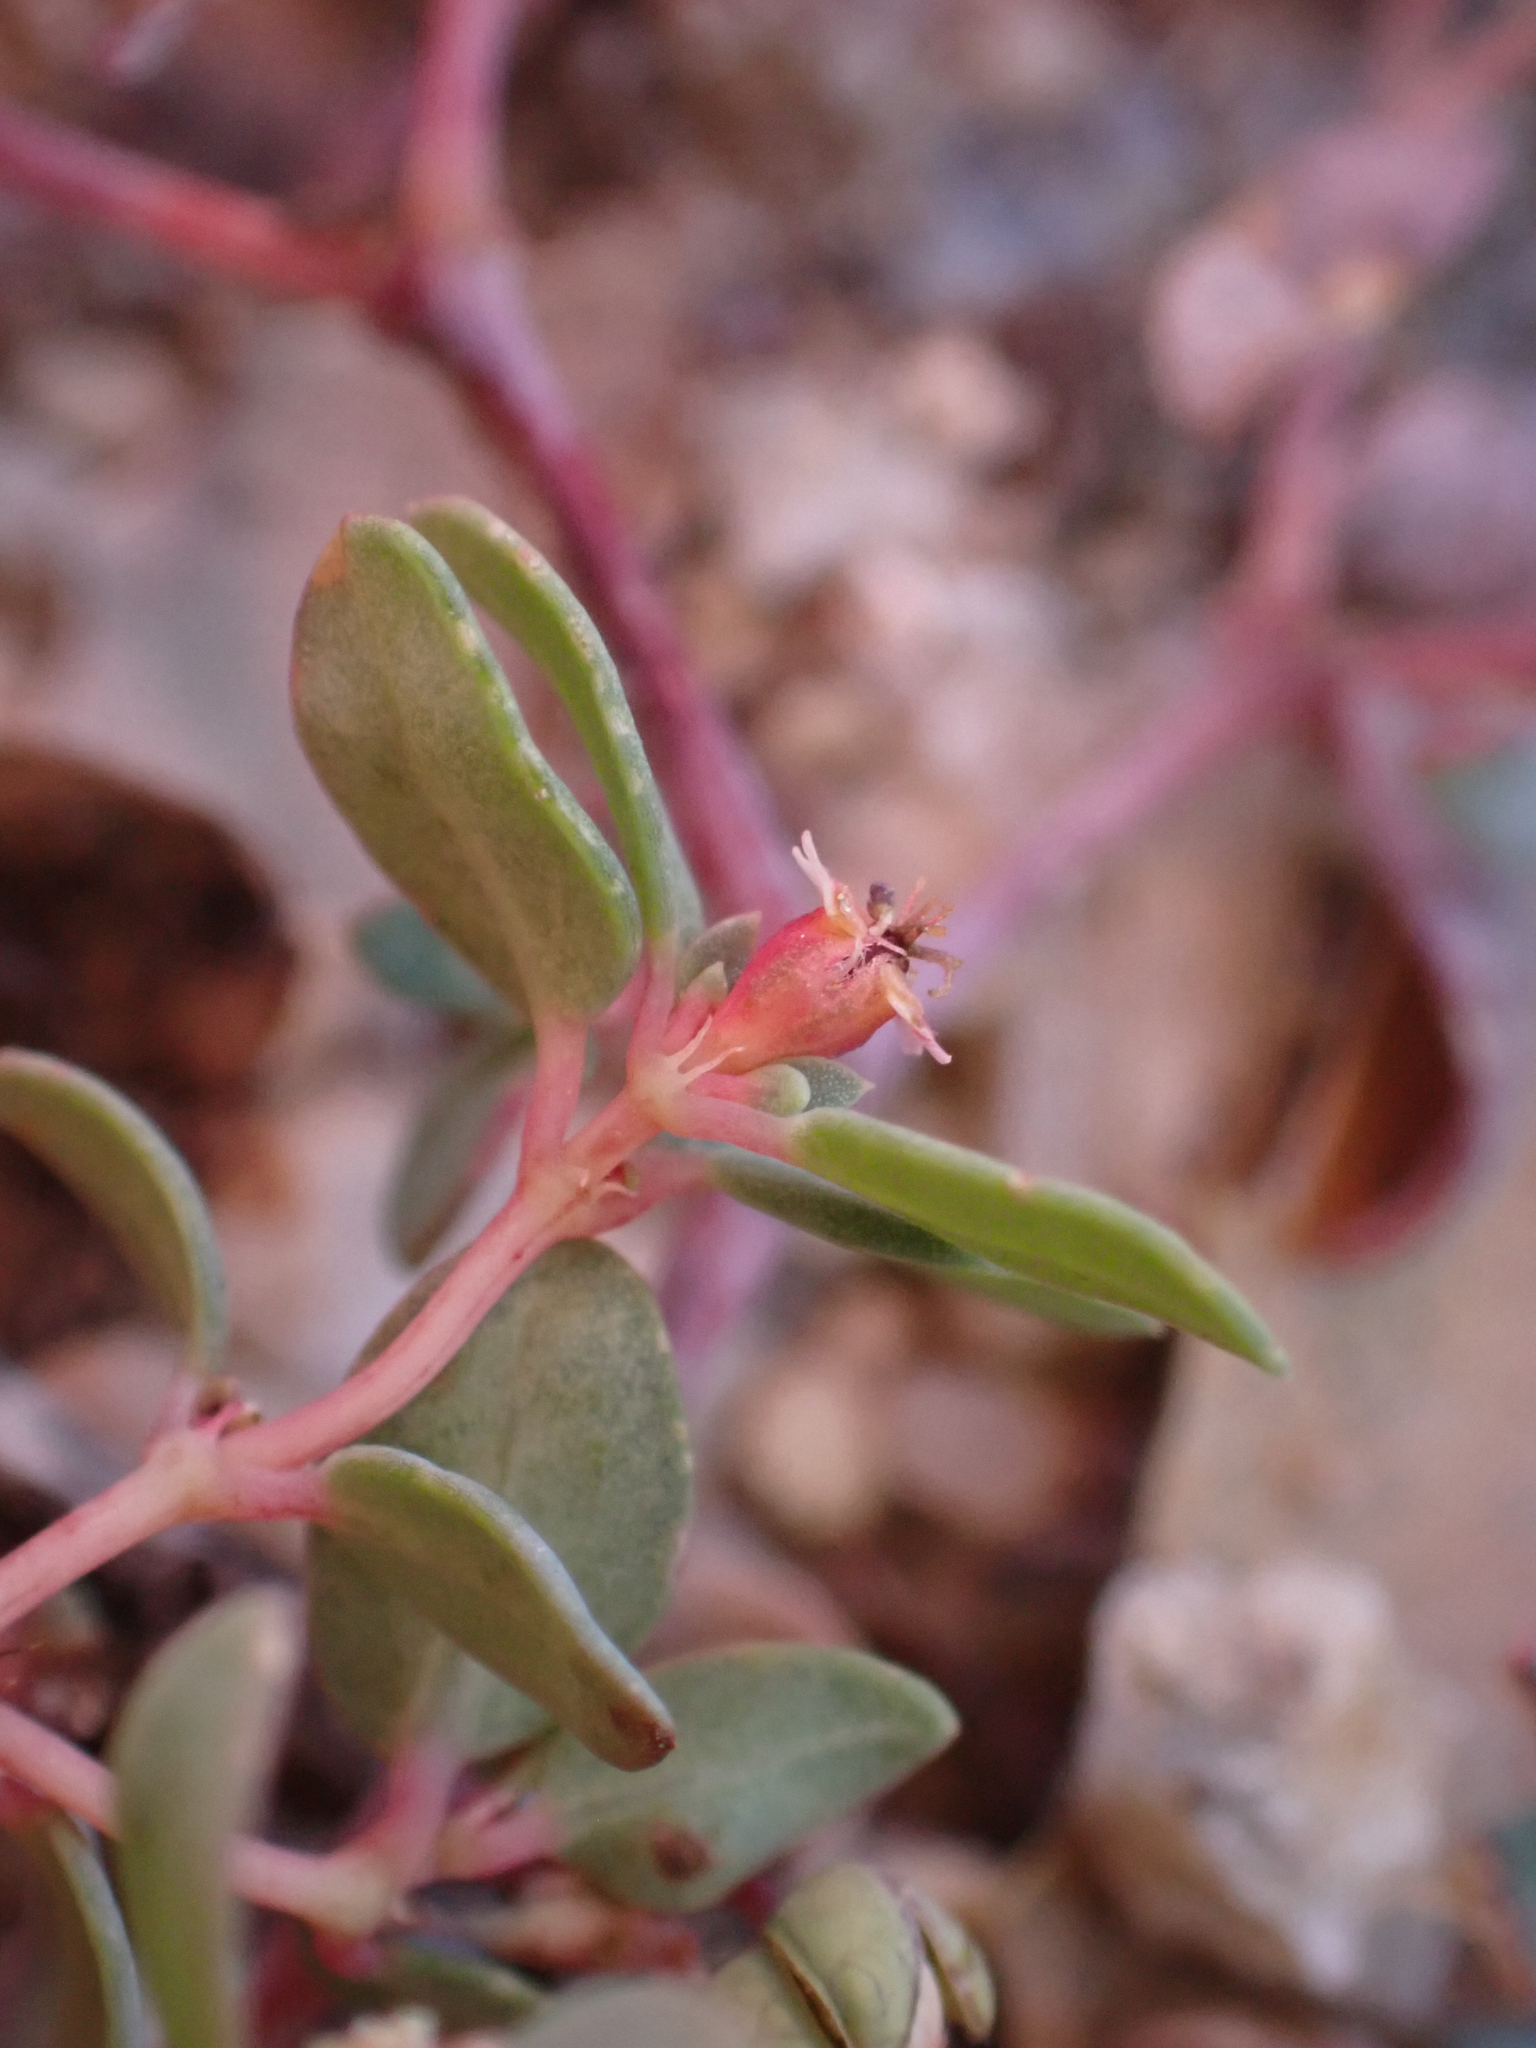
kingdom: Plantae
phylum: Tracheophyta
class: Magnoliopsida
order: Malpighiales
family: Euphorbiaceae
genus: Euphorbia
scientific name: Euphorbia fendleri
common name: Fendler's euphorbia
